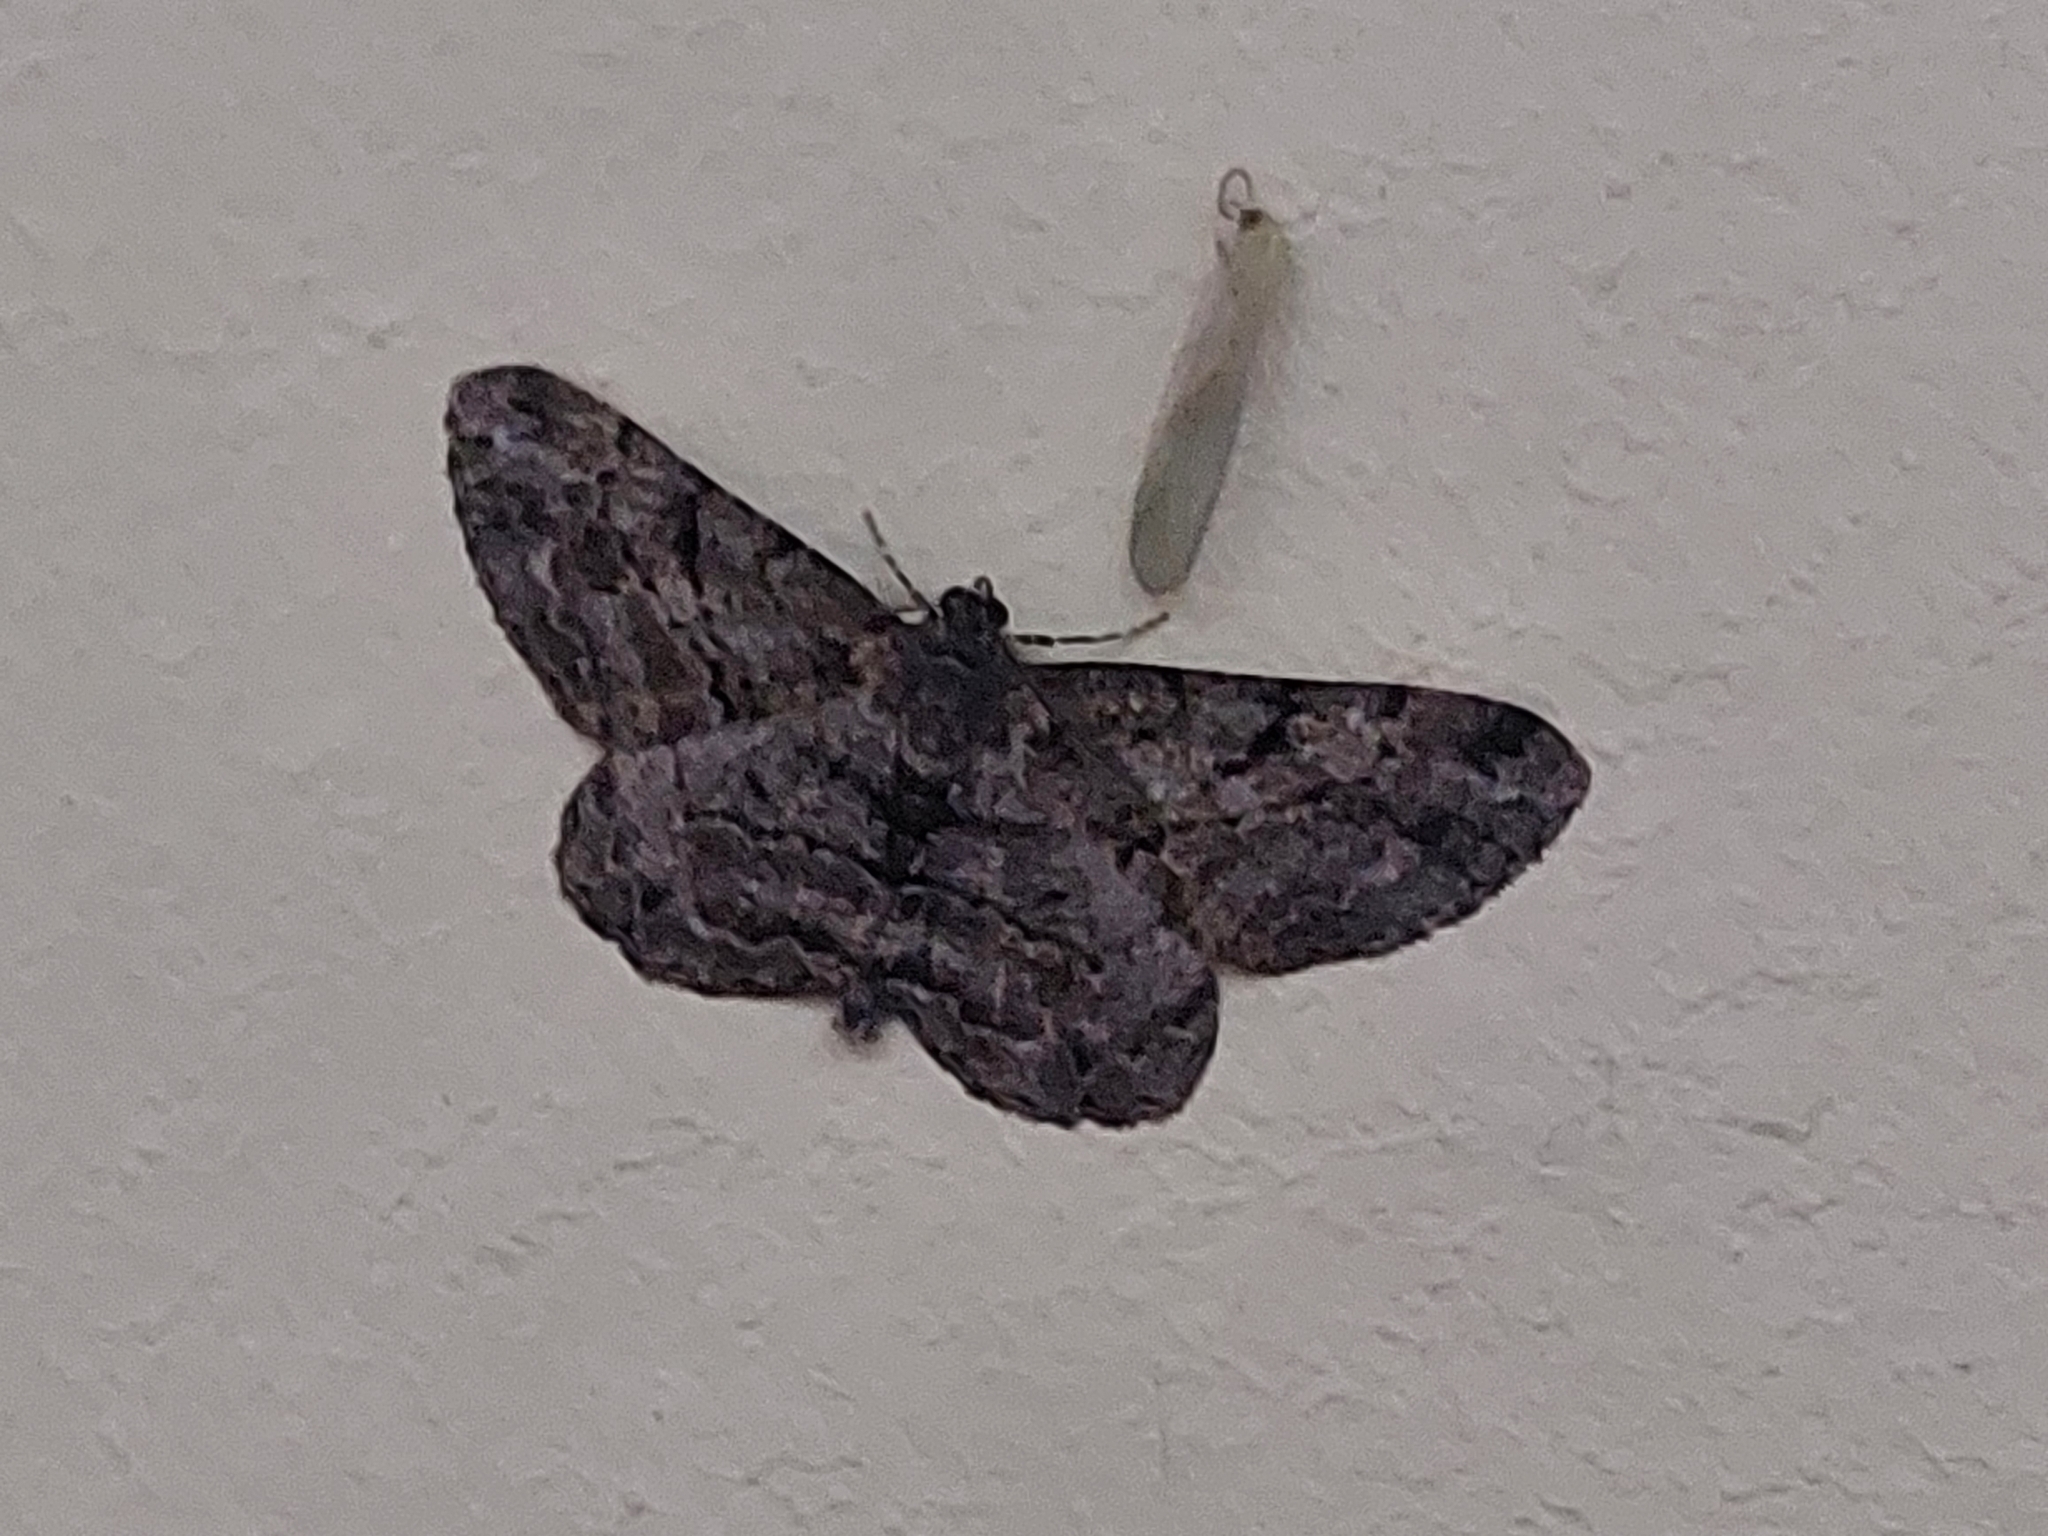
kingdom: Animalia
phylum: Arthropoda
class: Insecta
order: Lepidoptera
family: Geometridae
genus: Peribatodes
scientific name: Peribatodes rhomboidaria
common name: Willow beauty
